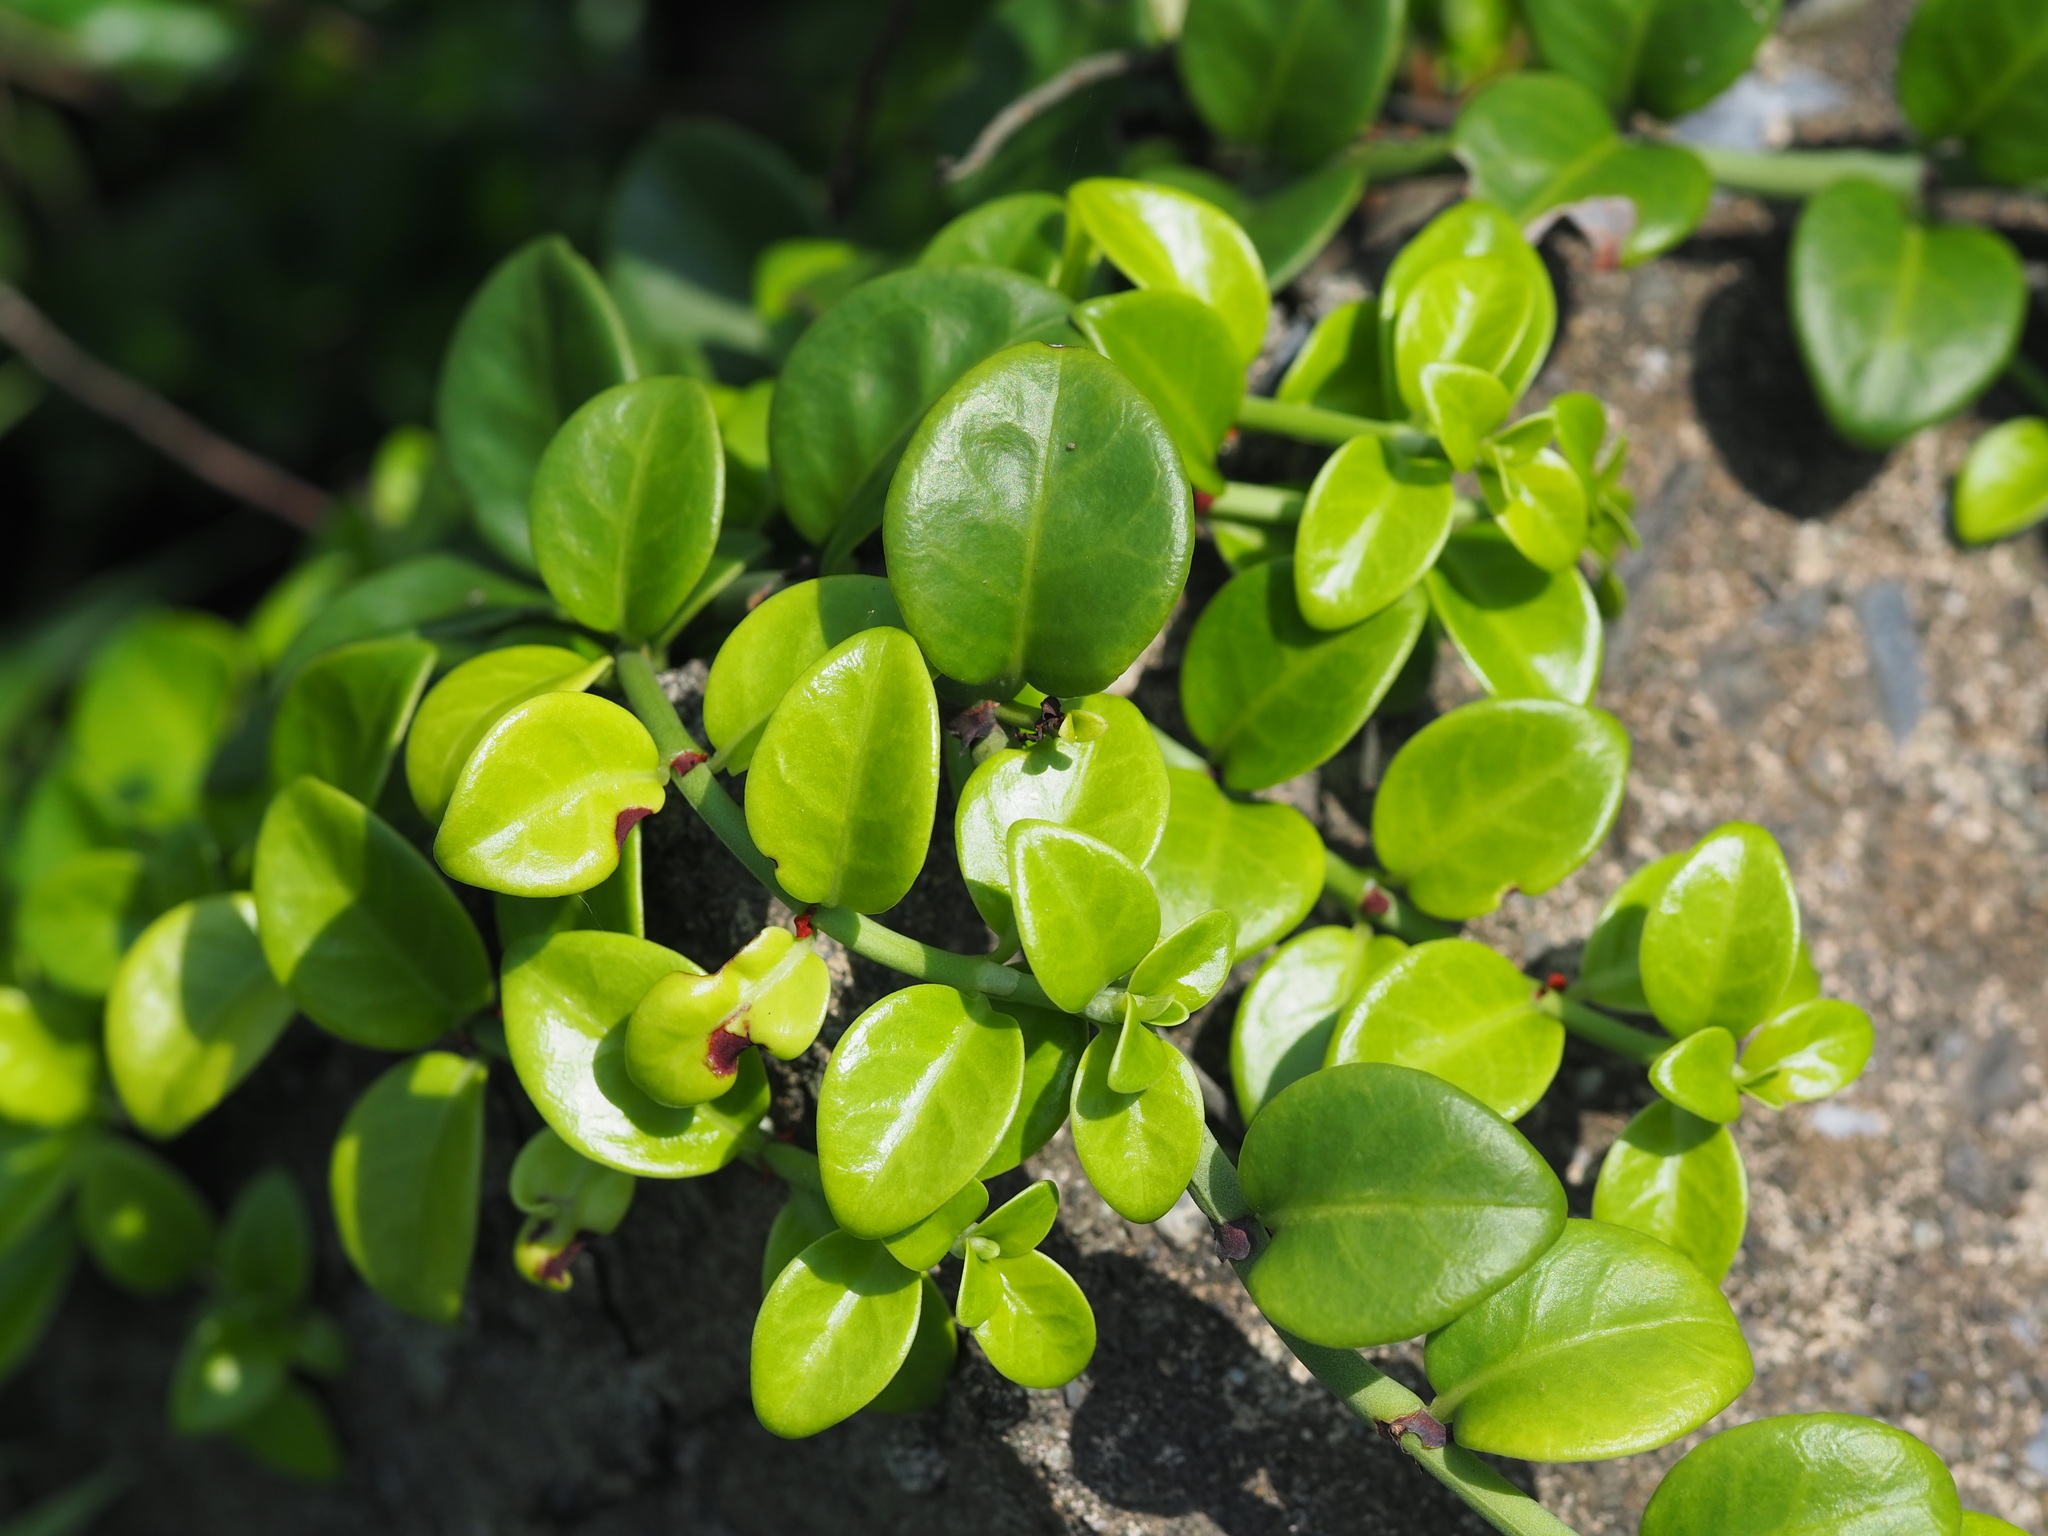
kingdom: Plantae
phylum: Tracheophyta
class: Magnoliopsida
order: Gentianales
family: Rubiaceae
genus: Psychotria
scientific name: Psychotria serpens
